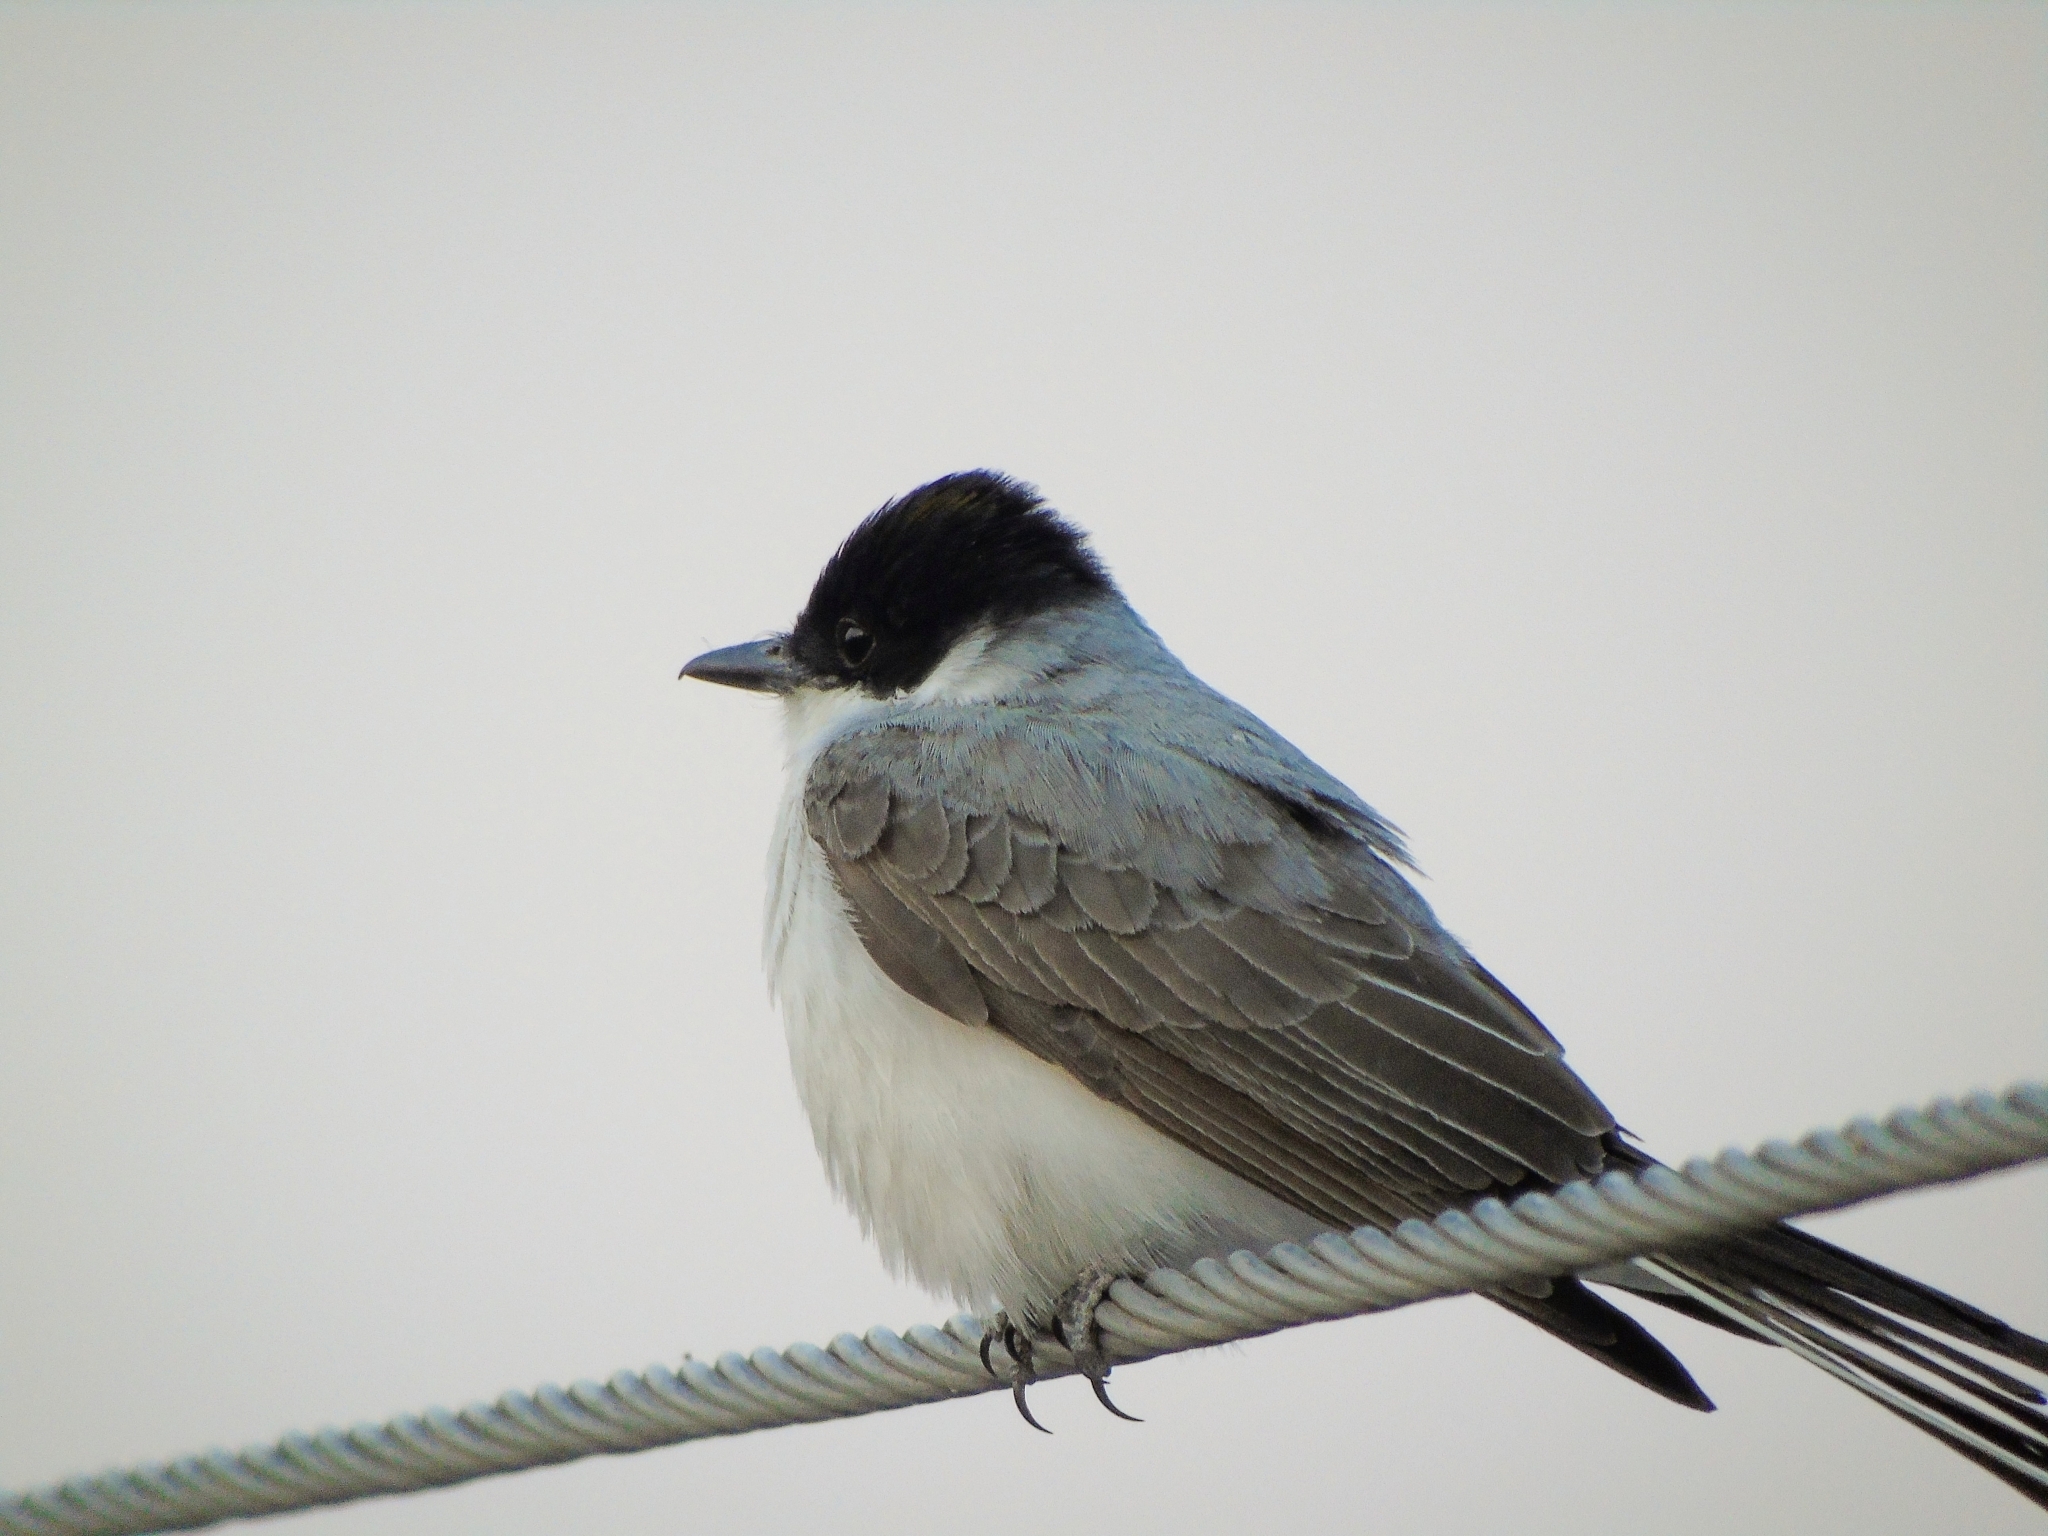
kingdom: Animalia
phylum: Chordata
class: Aves
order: Passeriformes
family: Tyrannidae
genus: Tyrannus
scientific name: Tyrannus savana
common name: Fork-tailed flycatcher
